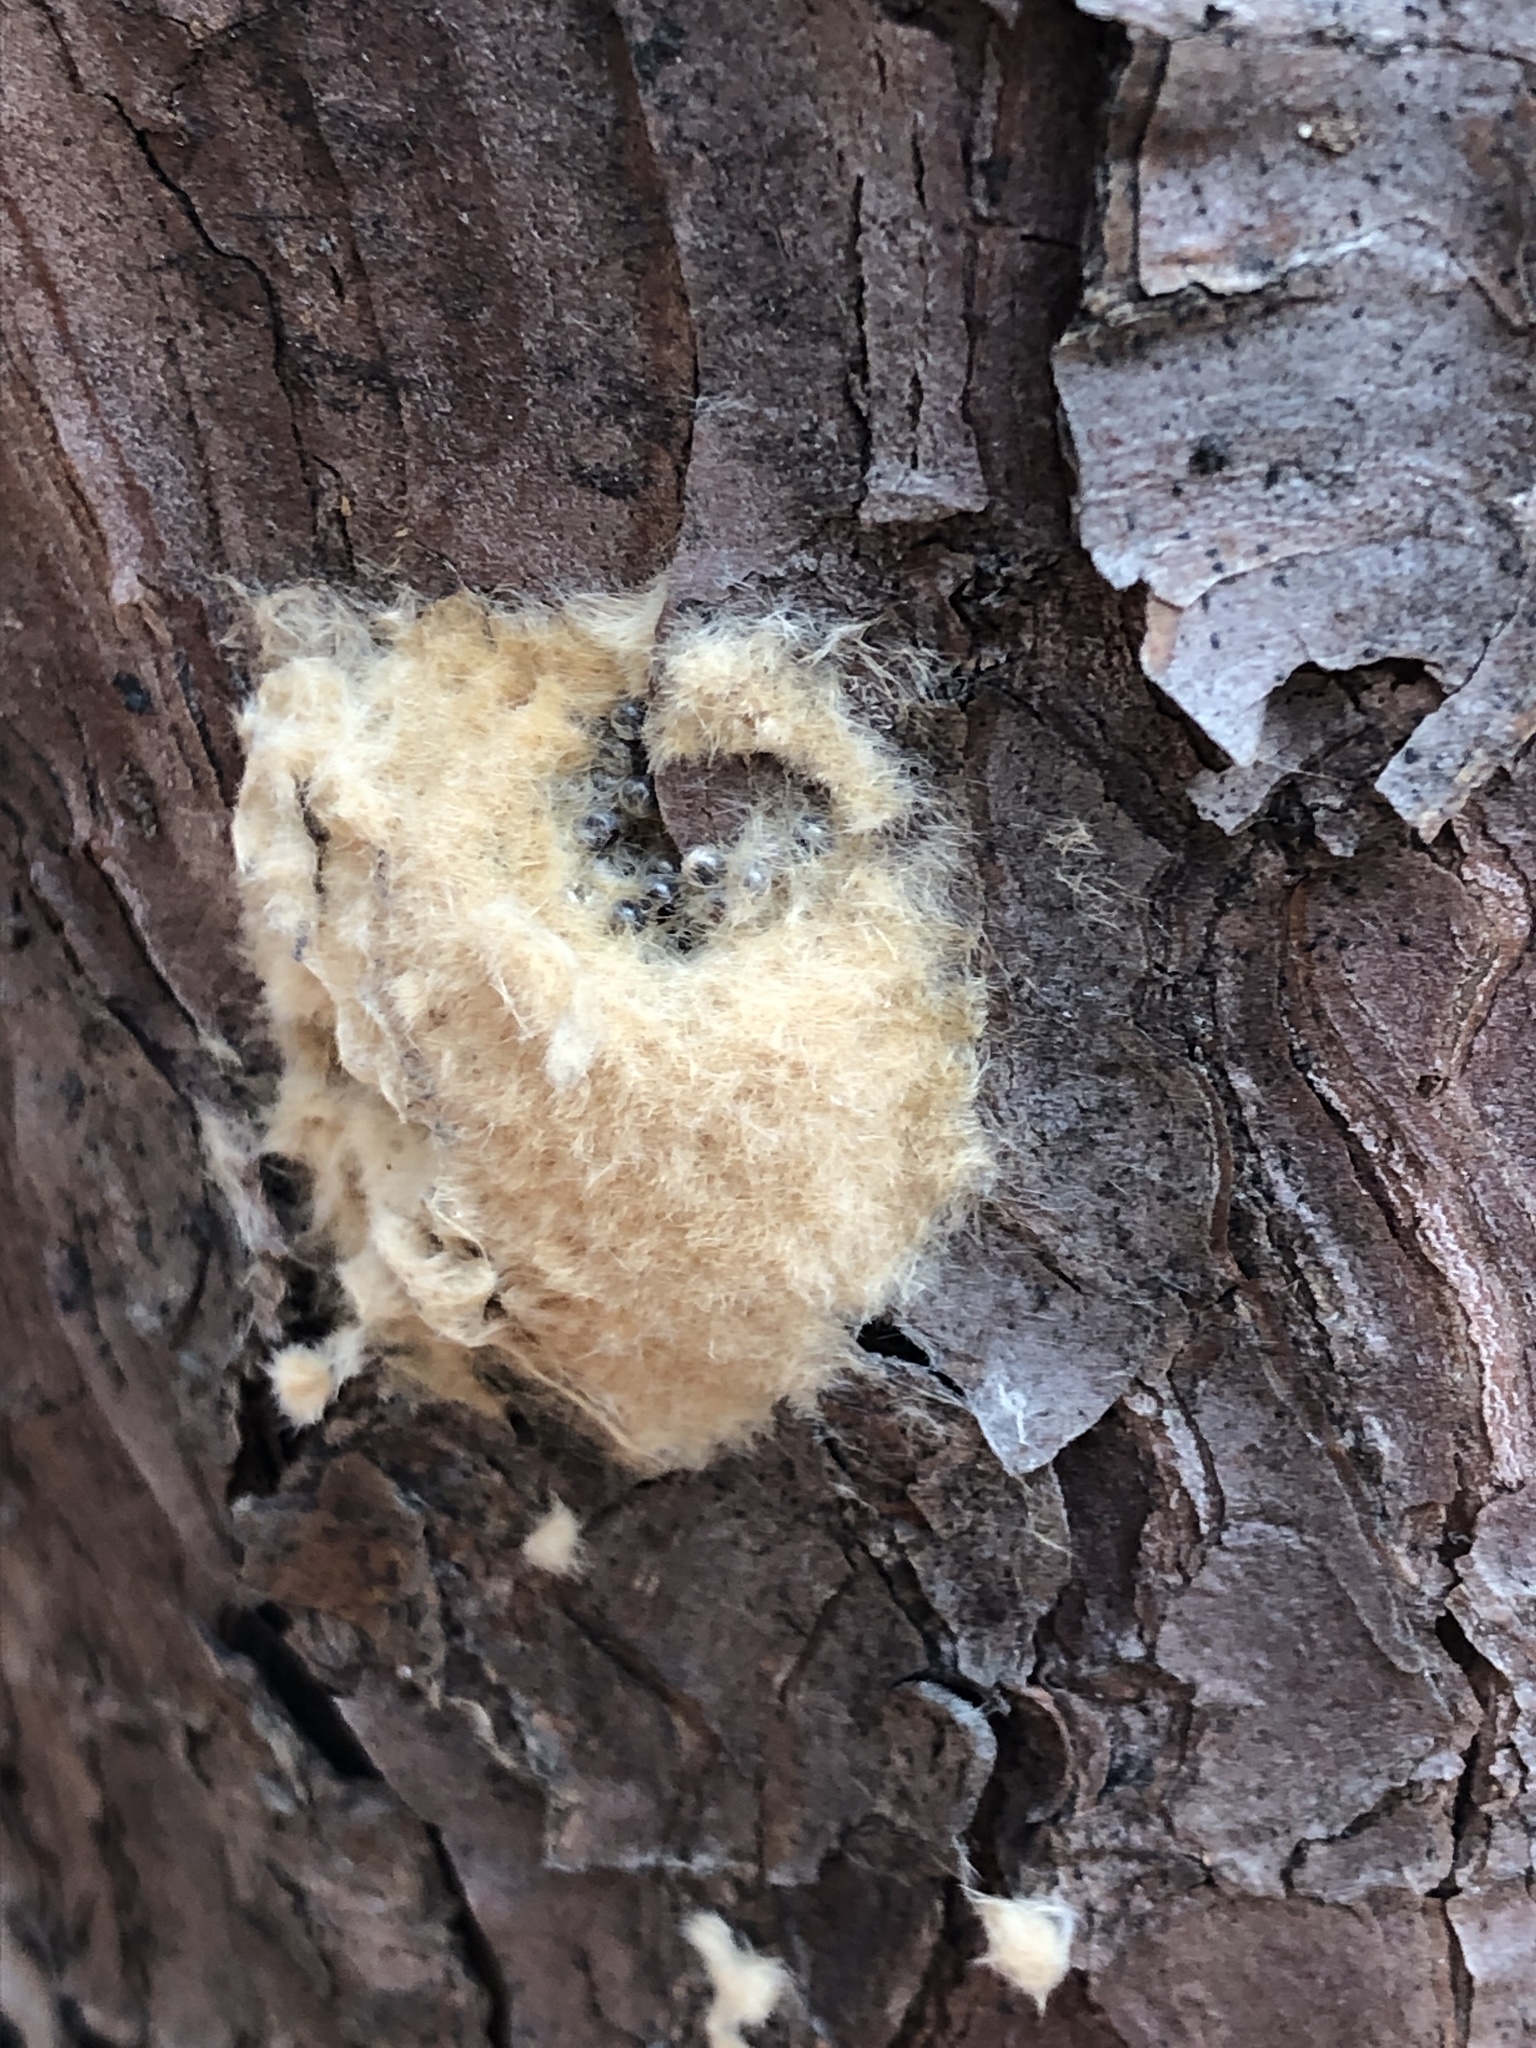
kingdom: Animalia
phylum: Arthropoda
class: Insecta
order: Lepidoptera
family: Erebidae
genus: Lymantria
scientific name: Lymantria dispar
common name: Gypsy moth
